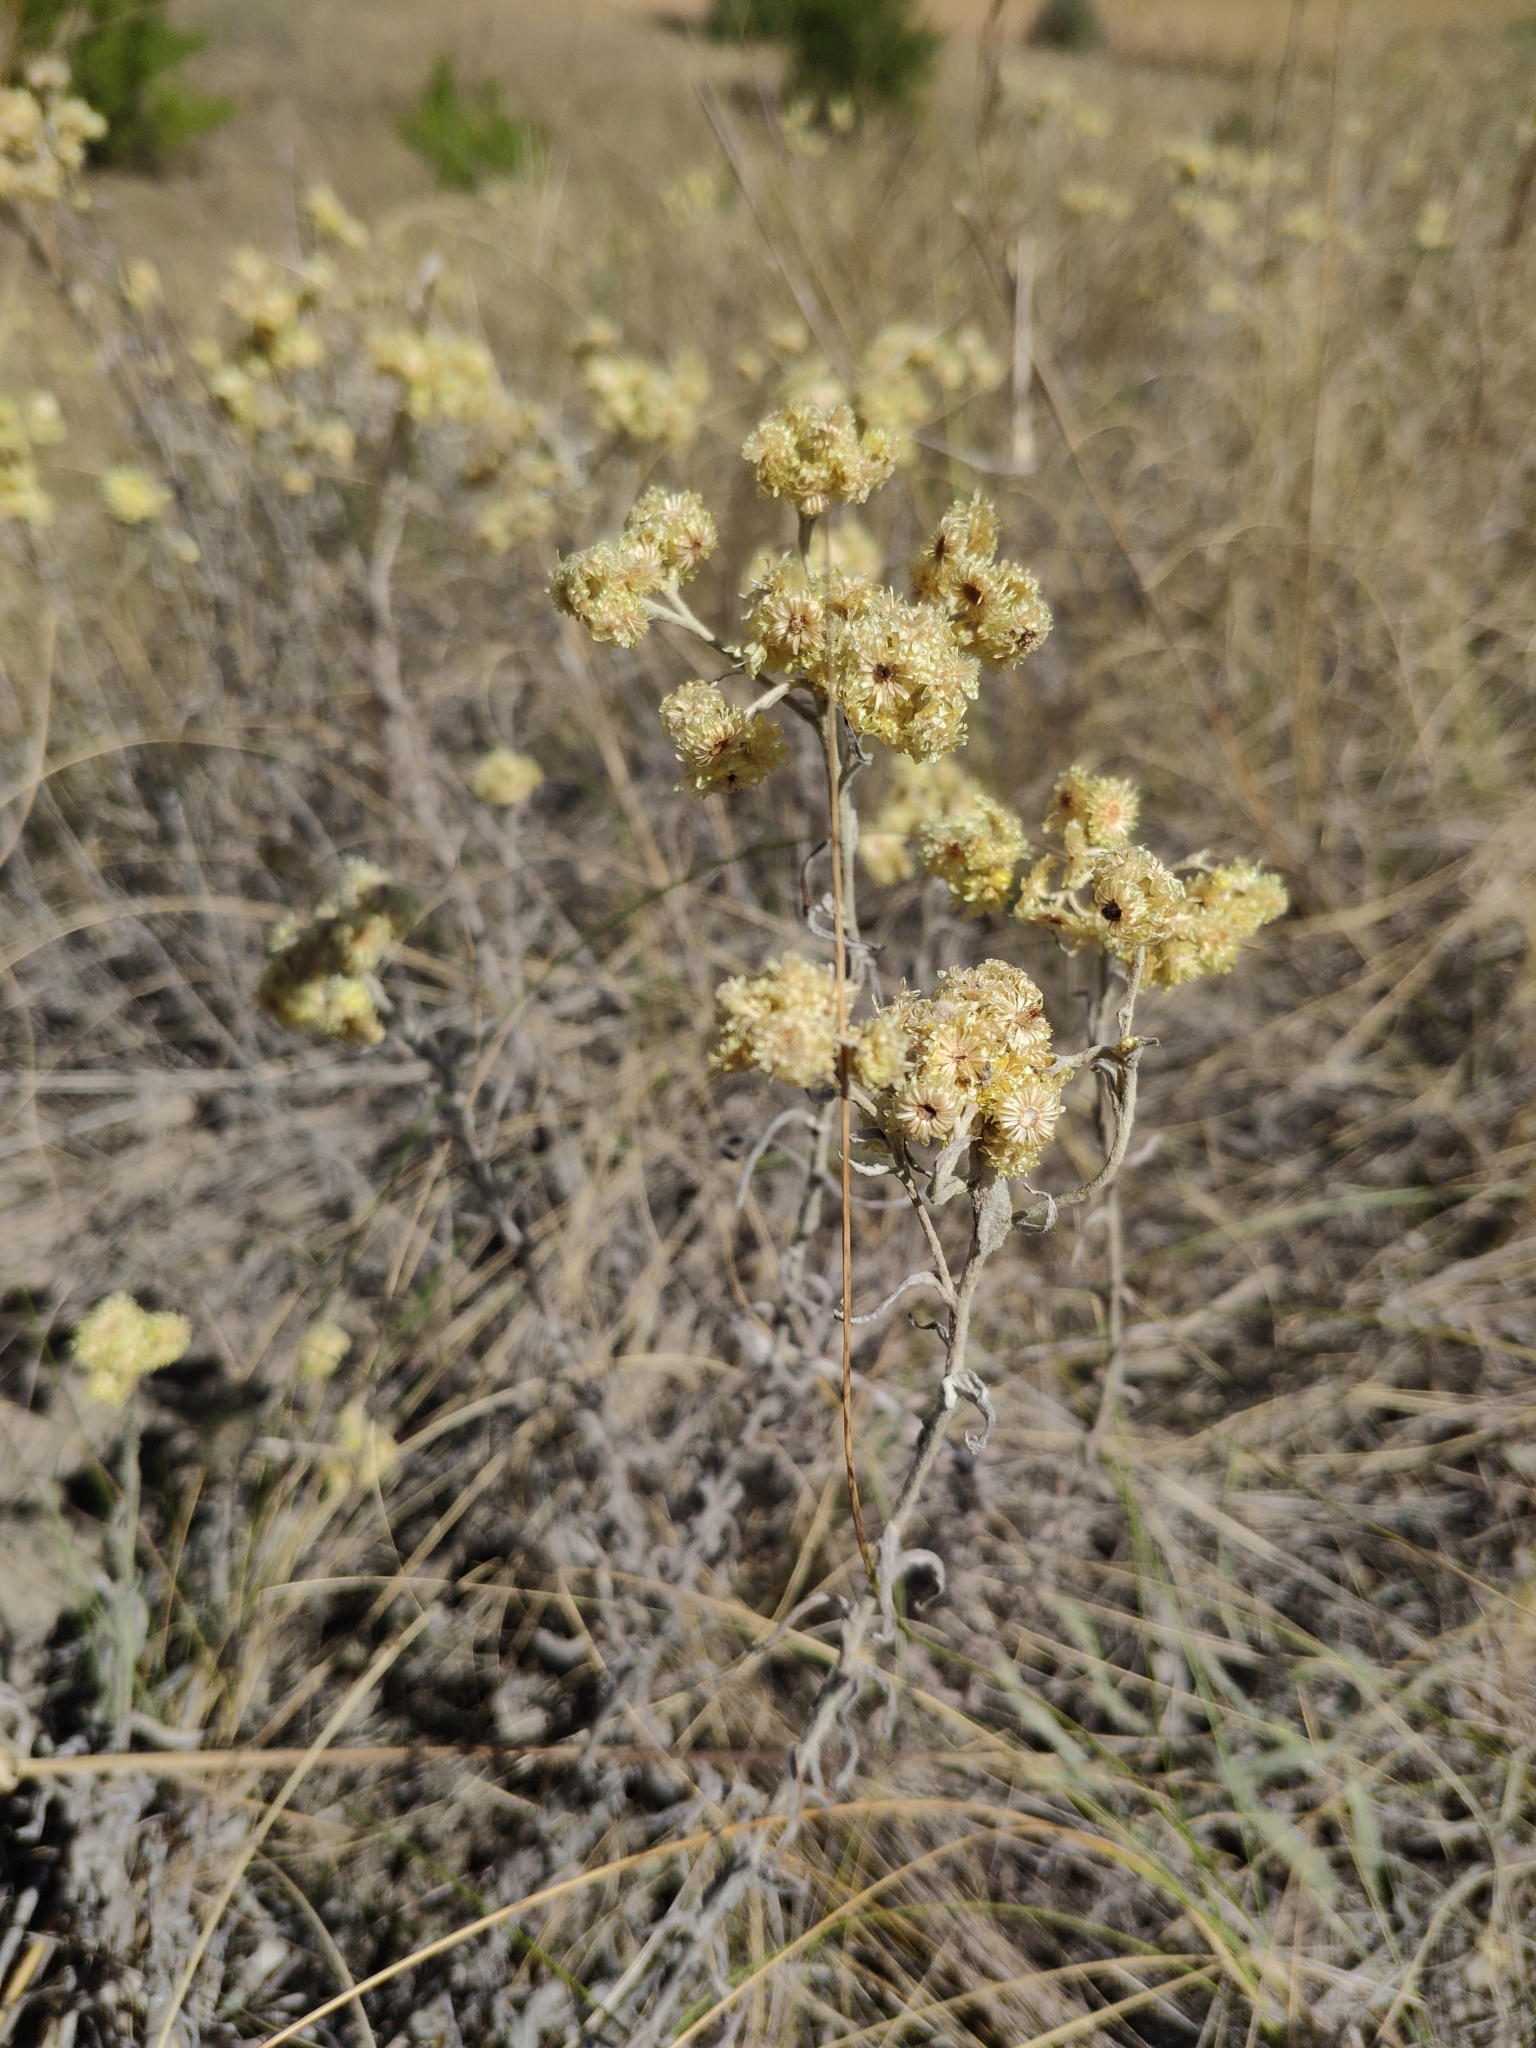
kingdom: Plantae
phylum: Tracheophyta
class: Magnoliopsida
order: Asterales
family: Asteraceae
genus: Helichrysum
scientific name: Helichrysum arenarium
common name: Strawflower
